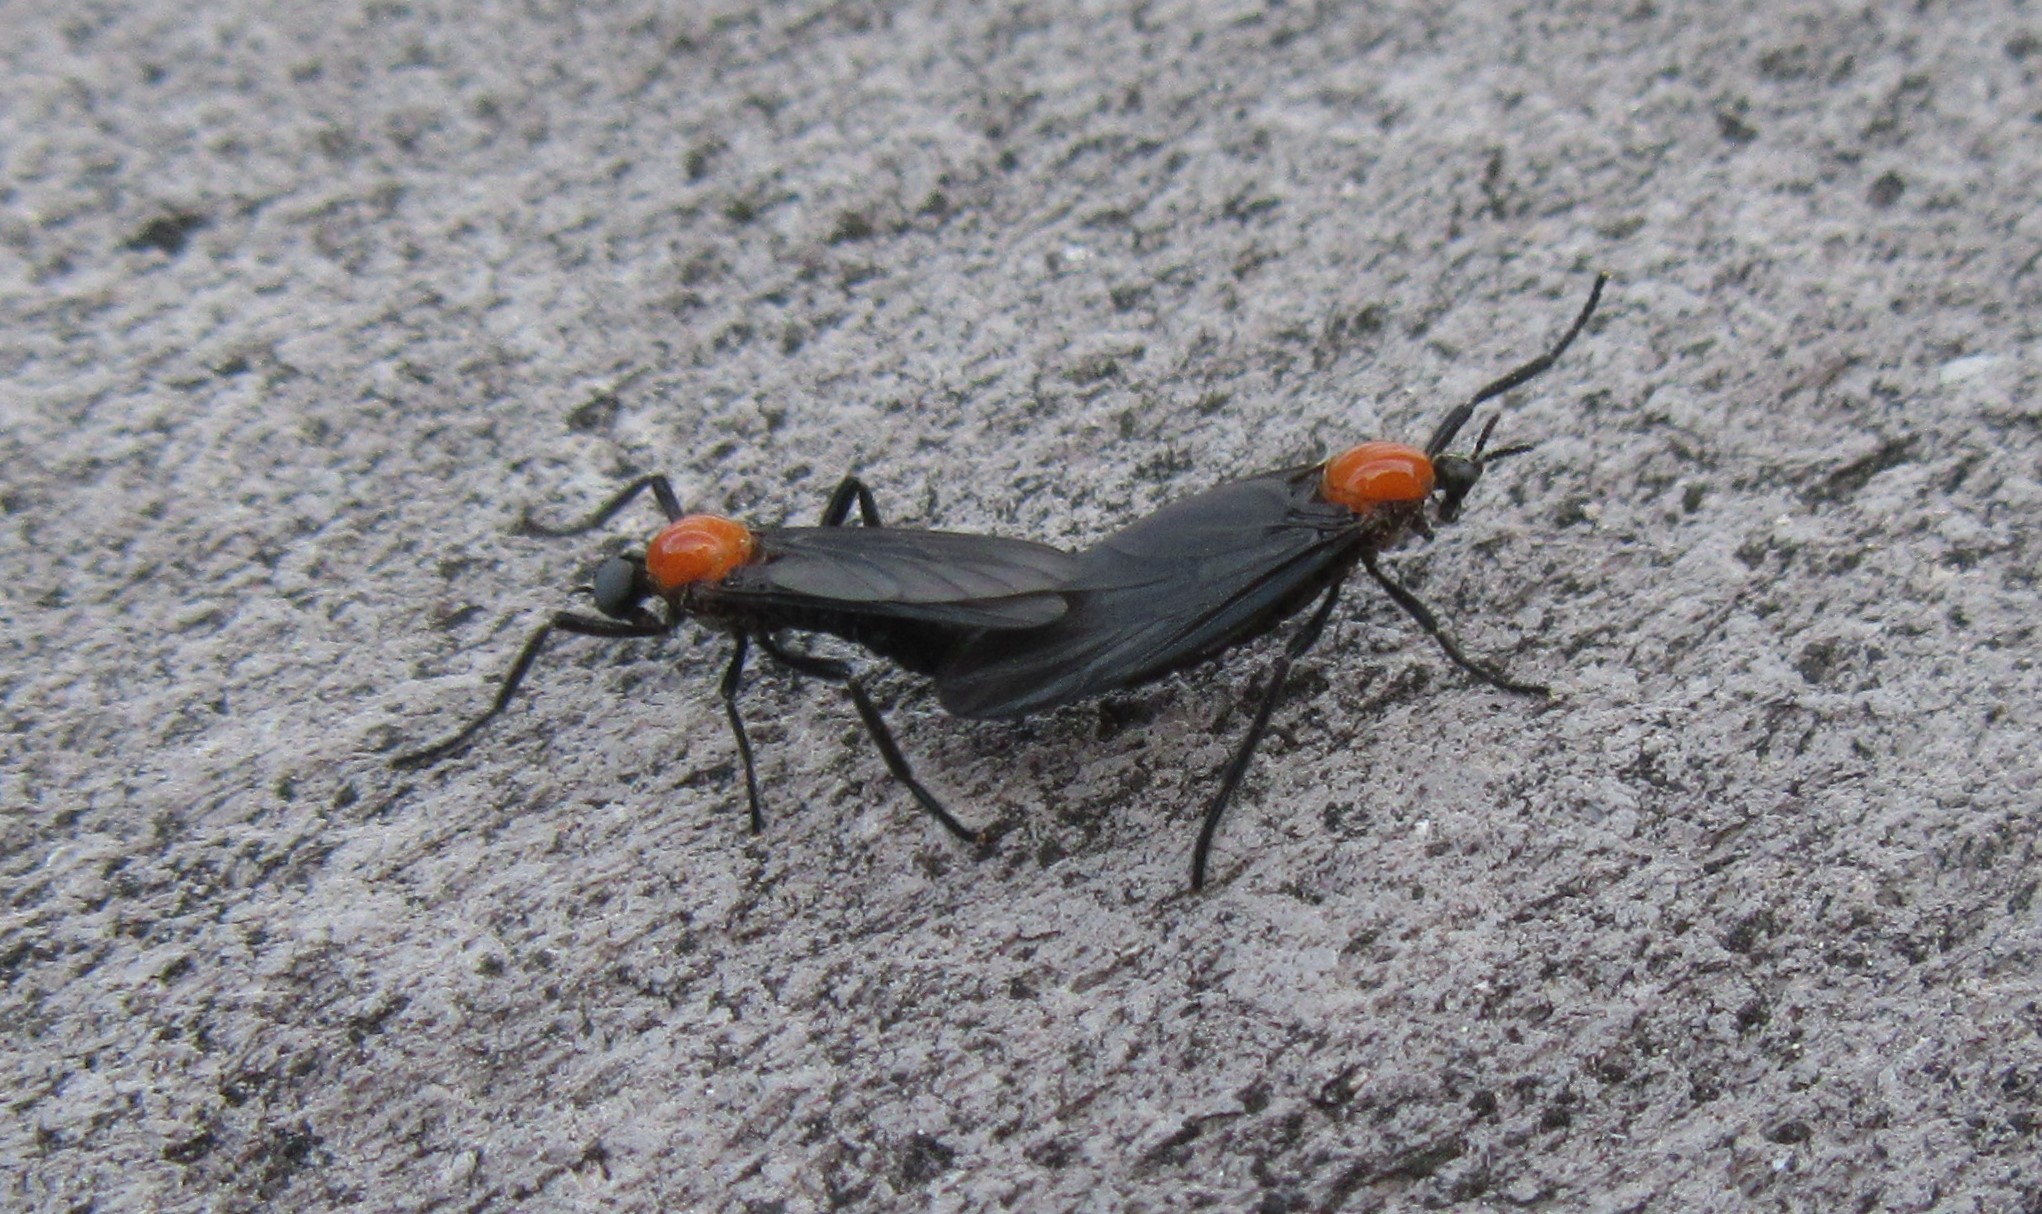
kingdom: Animalia
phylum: Arthropoda
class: Insecta
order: Diptera
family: Bibionidae
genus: Plecia
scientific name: Plecia nearctica
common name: March fly
